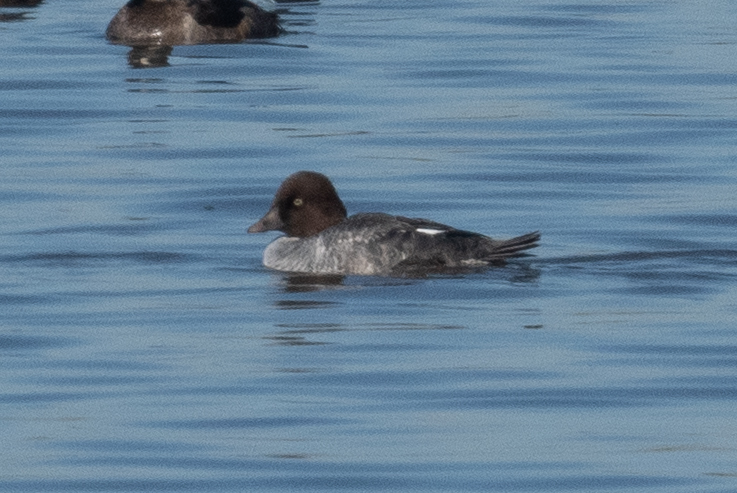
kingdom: Animalia
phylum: Chordata
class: Aves
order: Anseriformes
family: Anatidae
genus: Bucephala
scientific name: Bucephala clangula
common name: Common goldeneye
